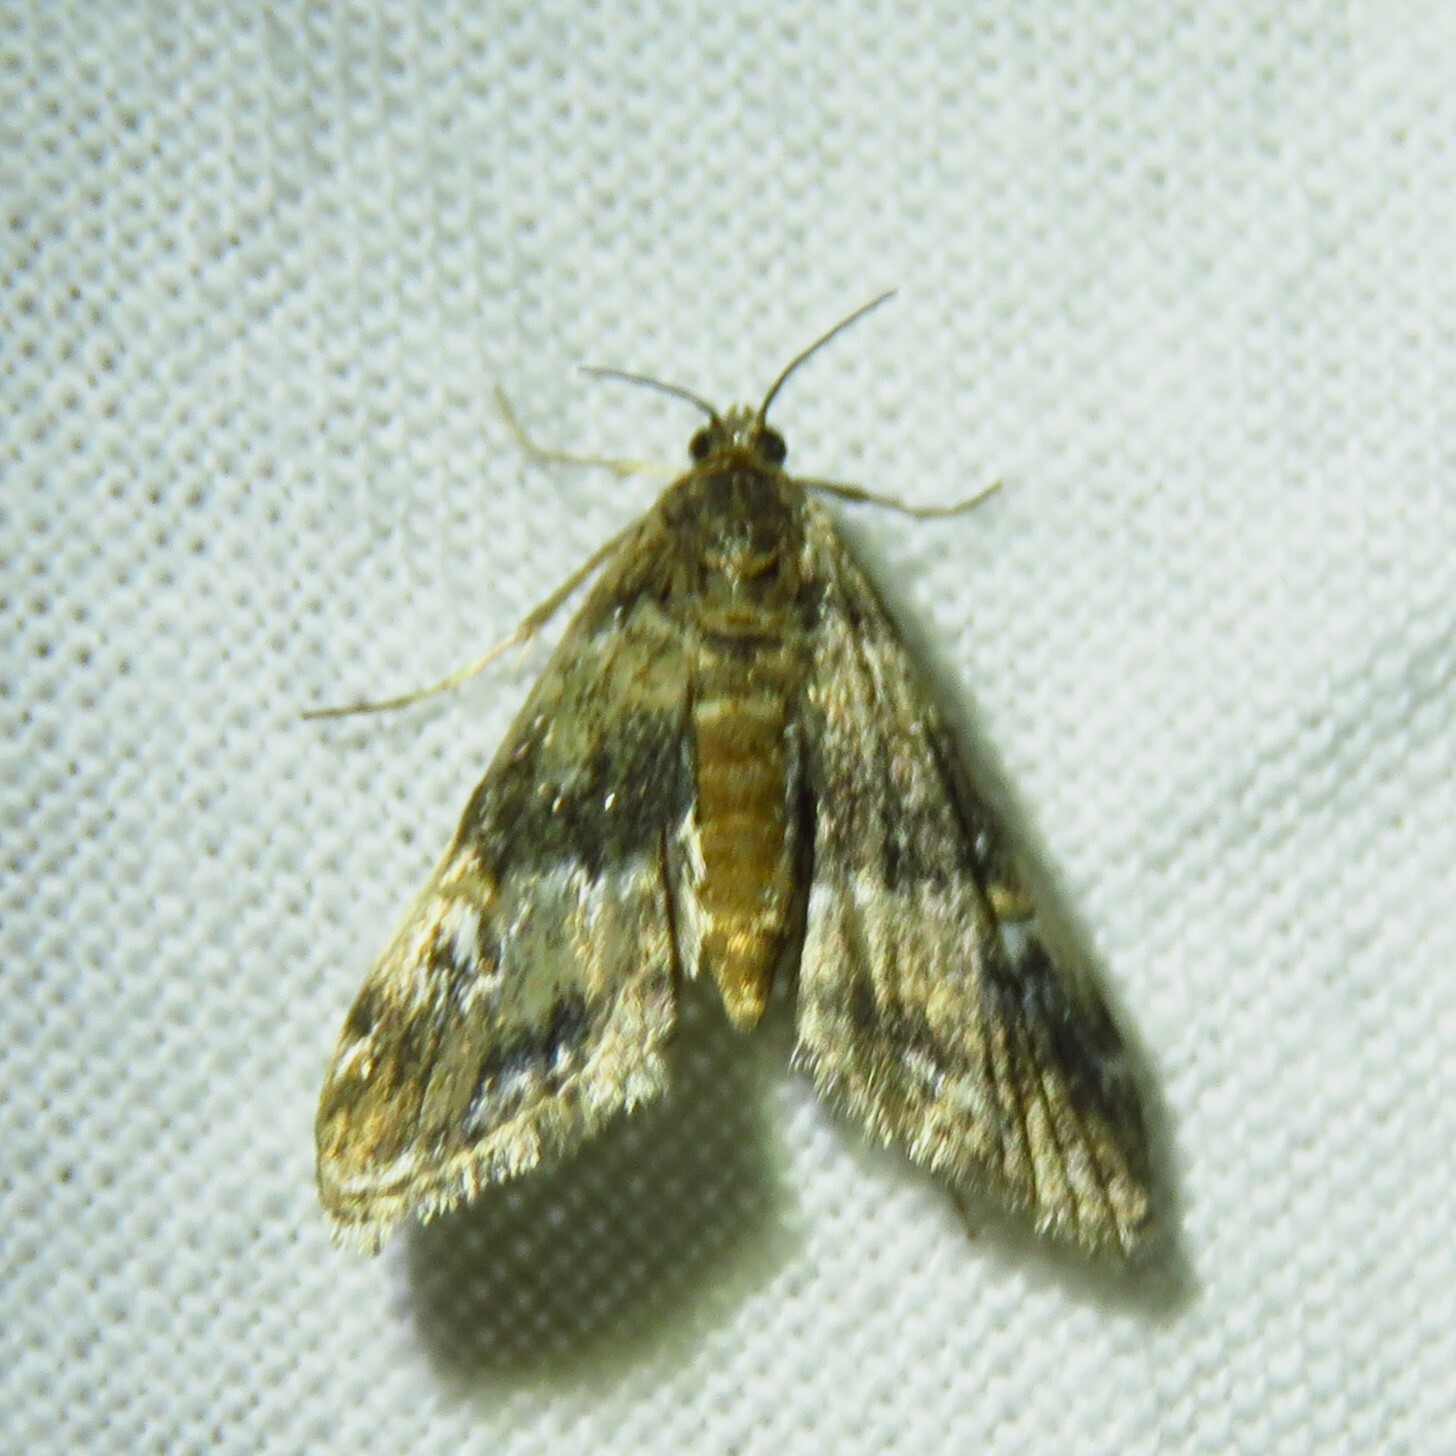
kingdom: Animalia
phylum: Arthropoda
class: Insecta
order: Lepidoptera
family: Crambidae
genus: Elophila
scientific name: Elophila obliteralis
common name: Waterlily leafcutter moth
